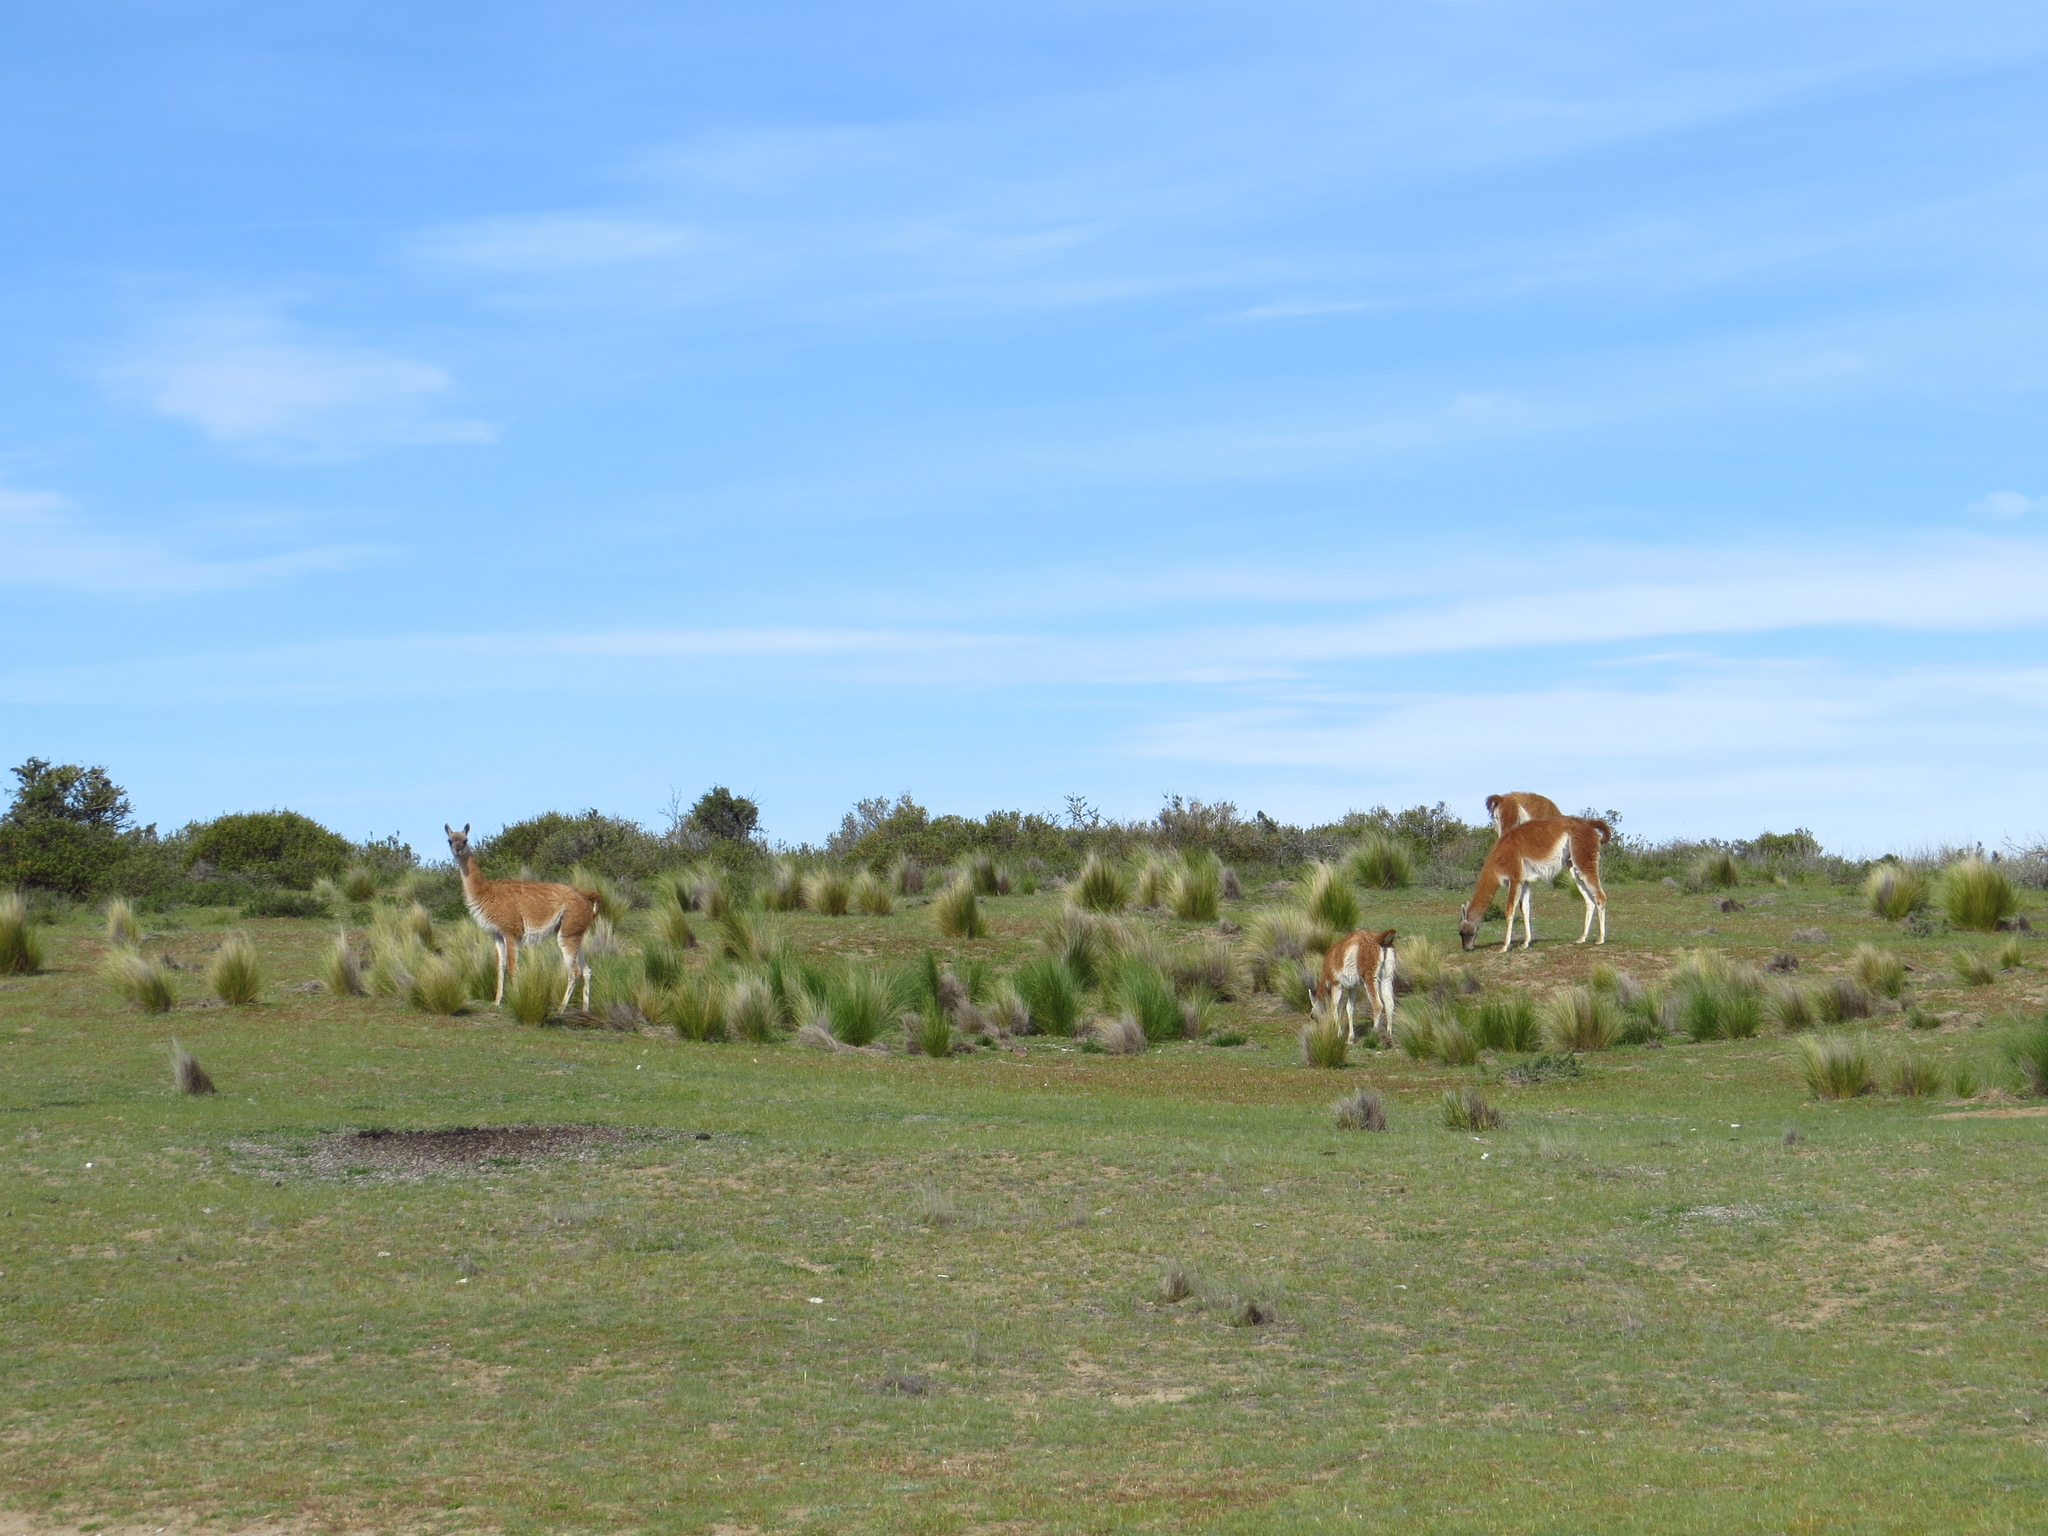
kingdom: Animalia
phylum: Chordata
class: Mammalia
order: Artiodactyla
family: Camelidae
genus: Lama
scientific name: Lama glama
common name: Llama
